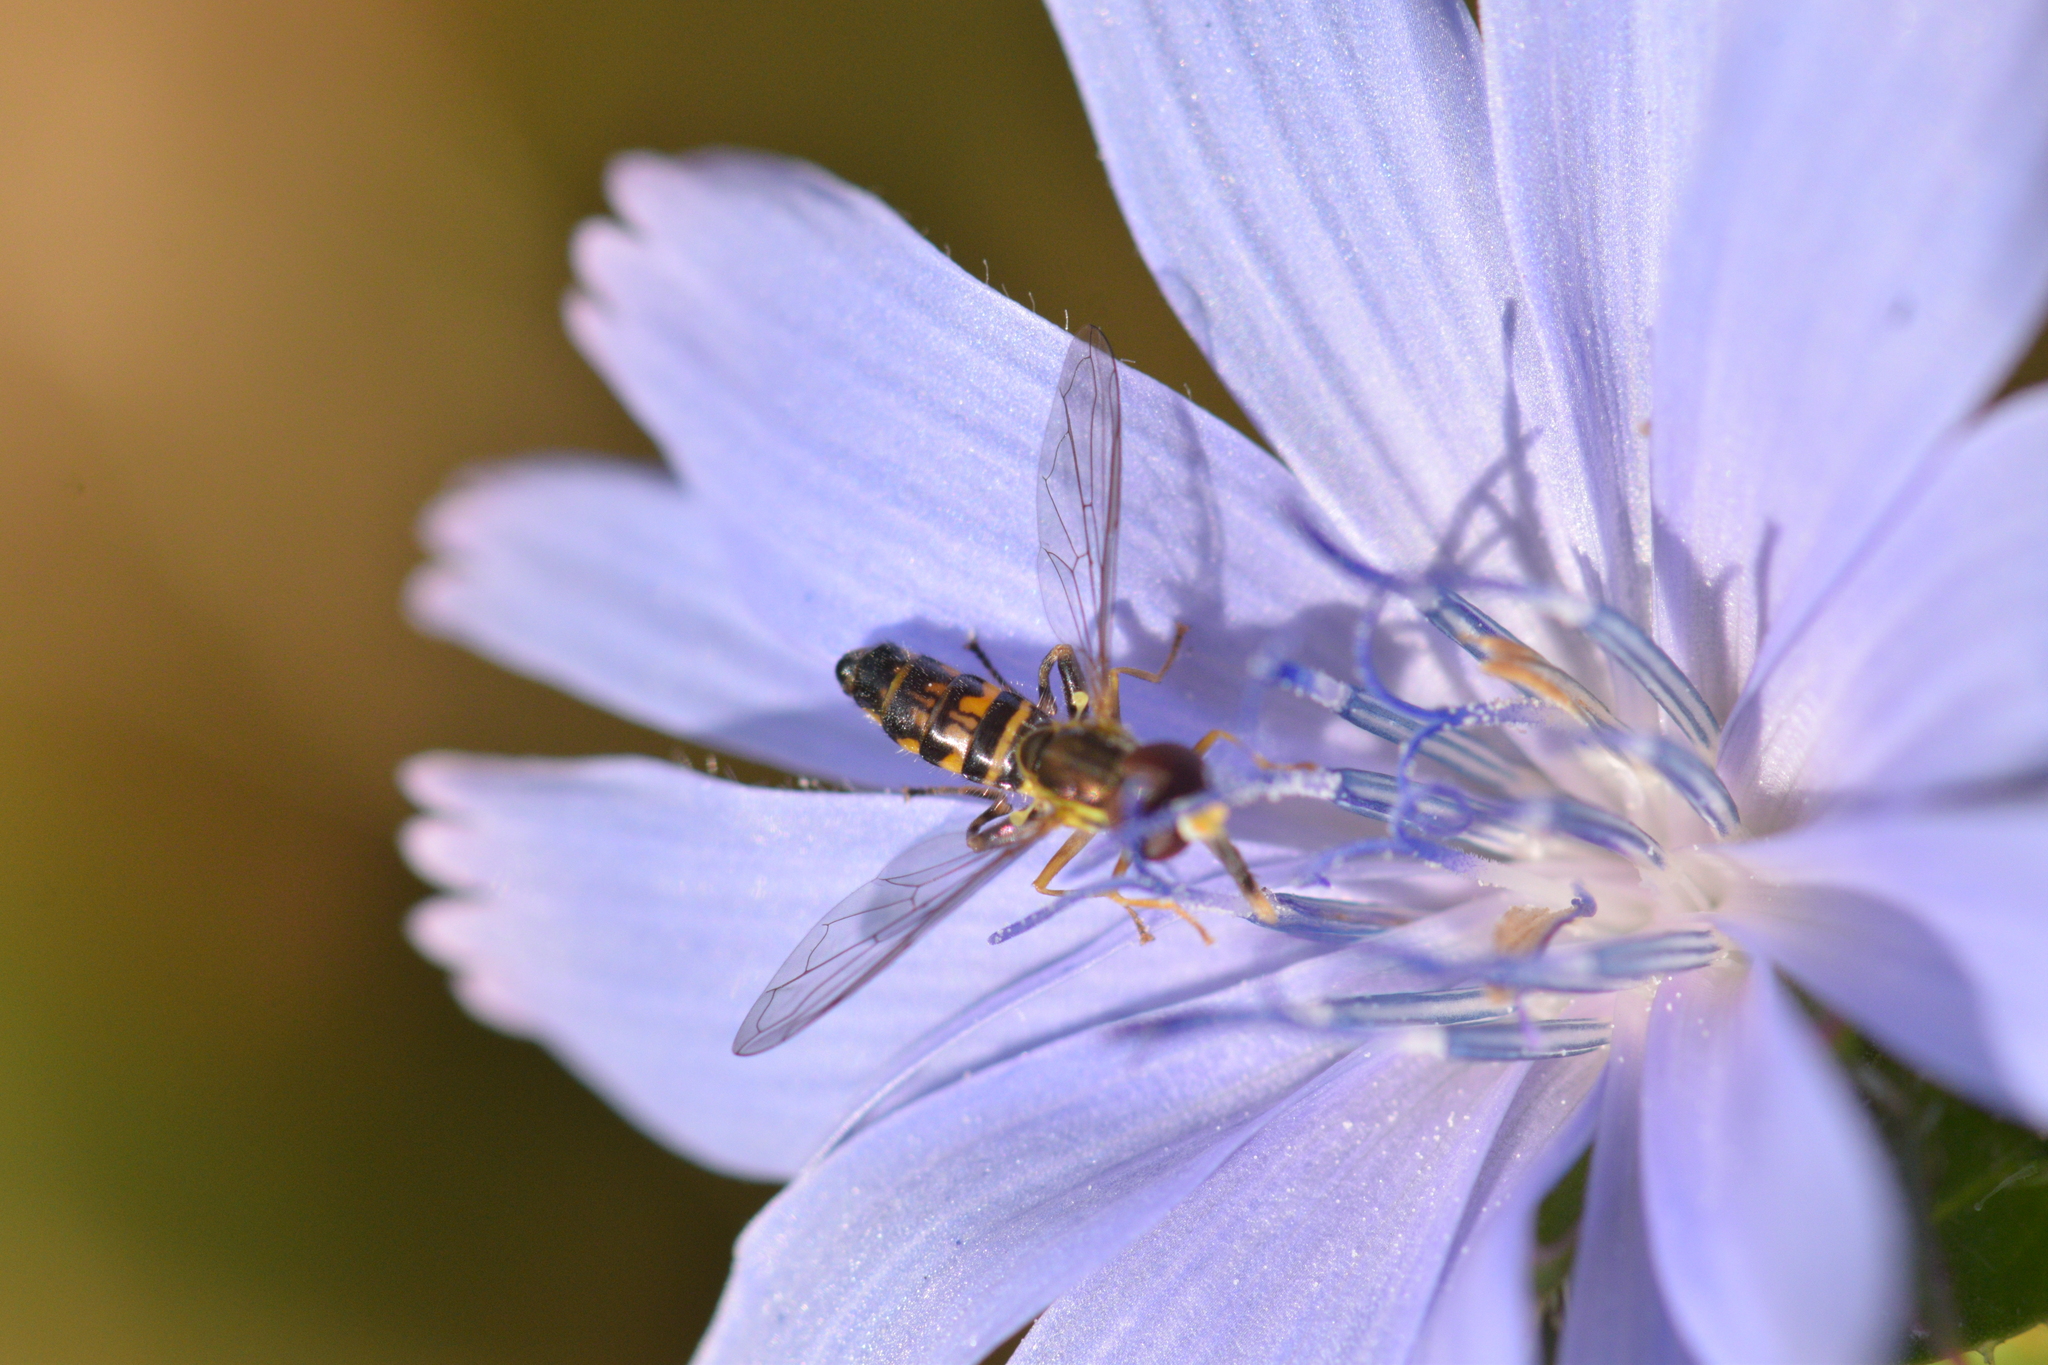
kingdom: Animalia
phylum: Arthropoda
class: Insecta
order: Diptera
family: Syrphidae
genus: Toxomerus
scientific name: Toxomerus geminatus
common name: Eastern calligrapher
